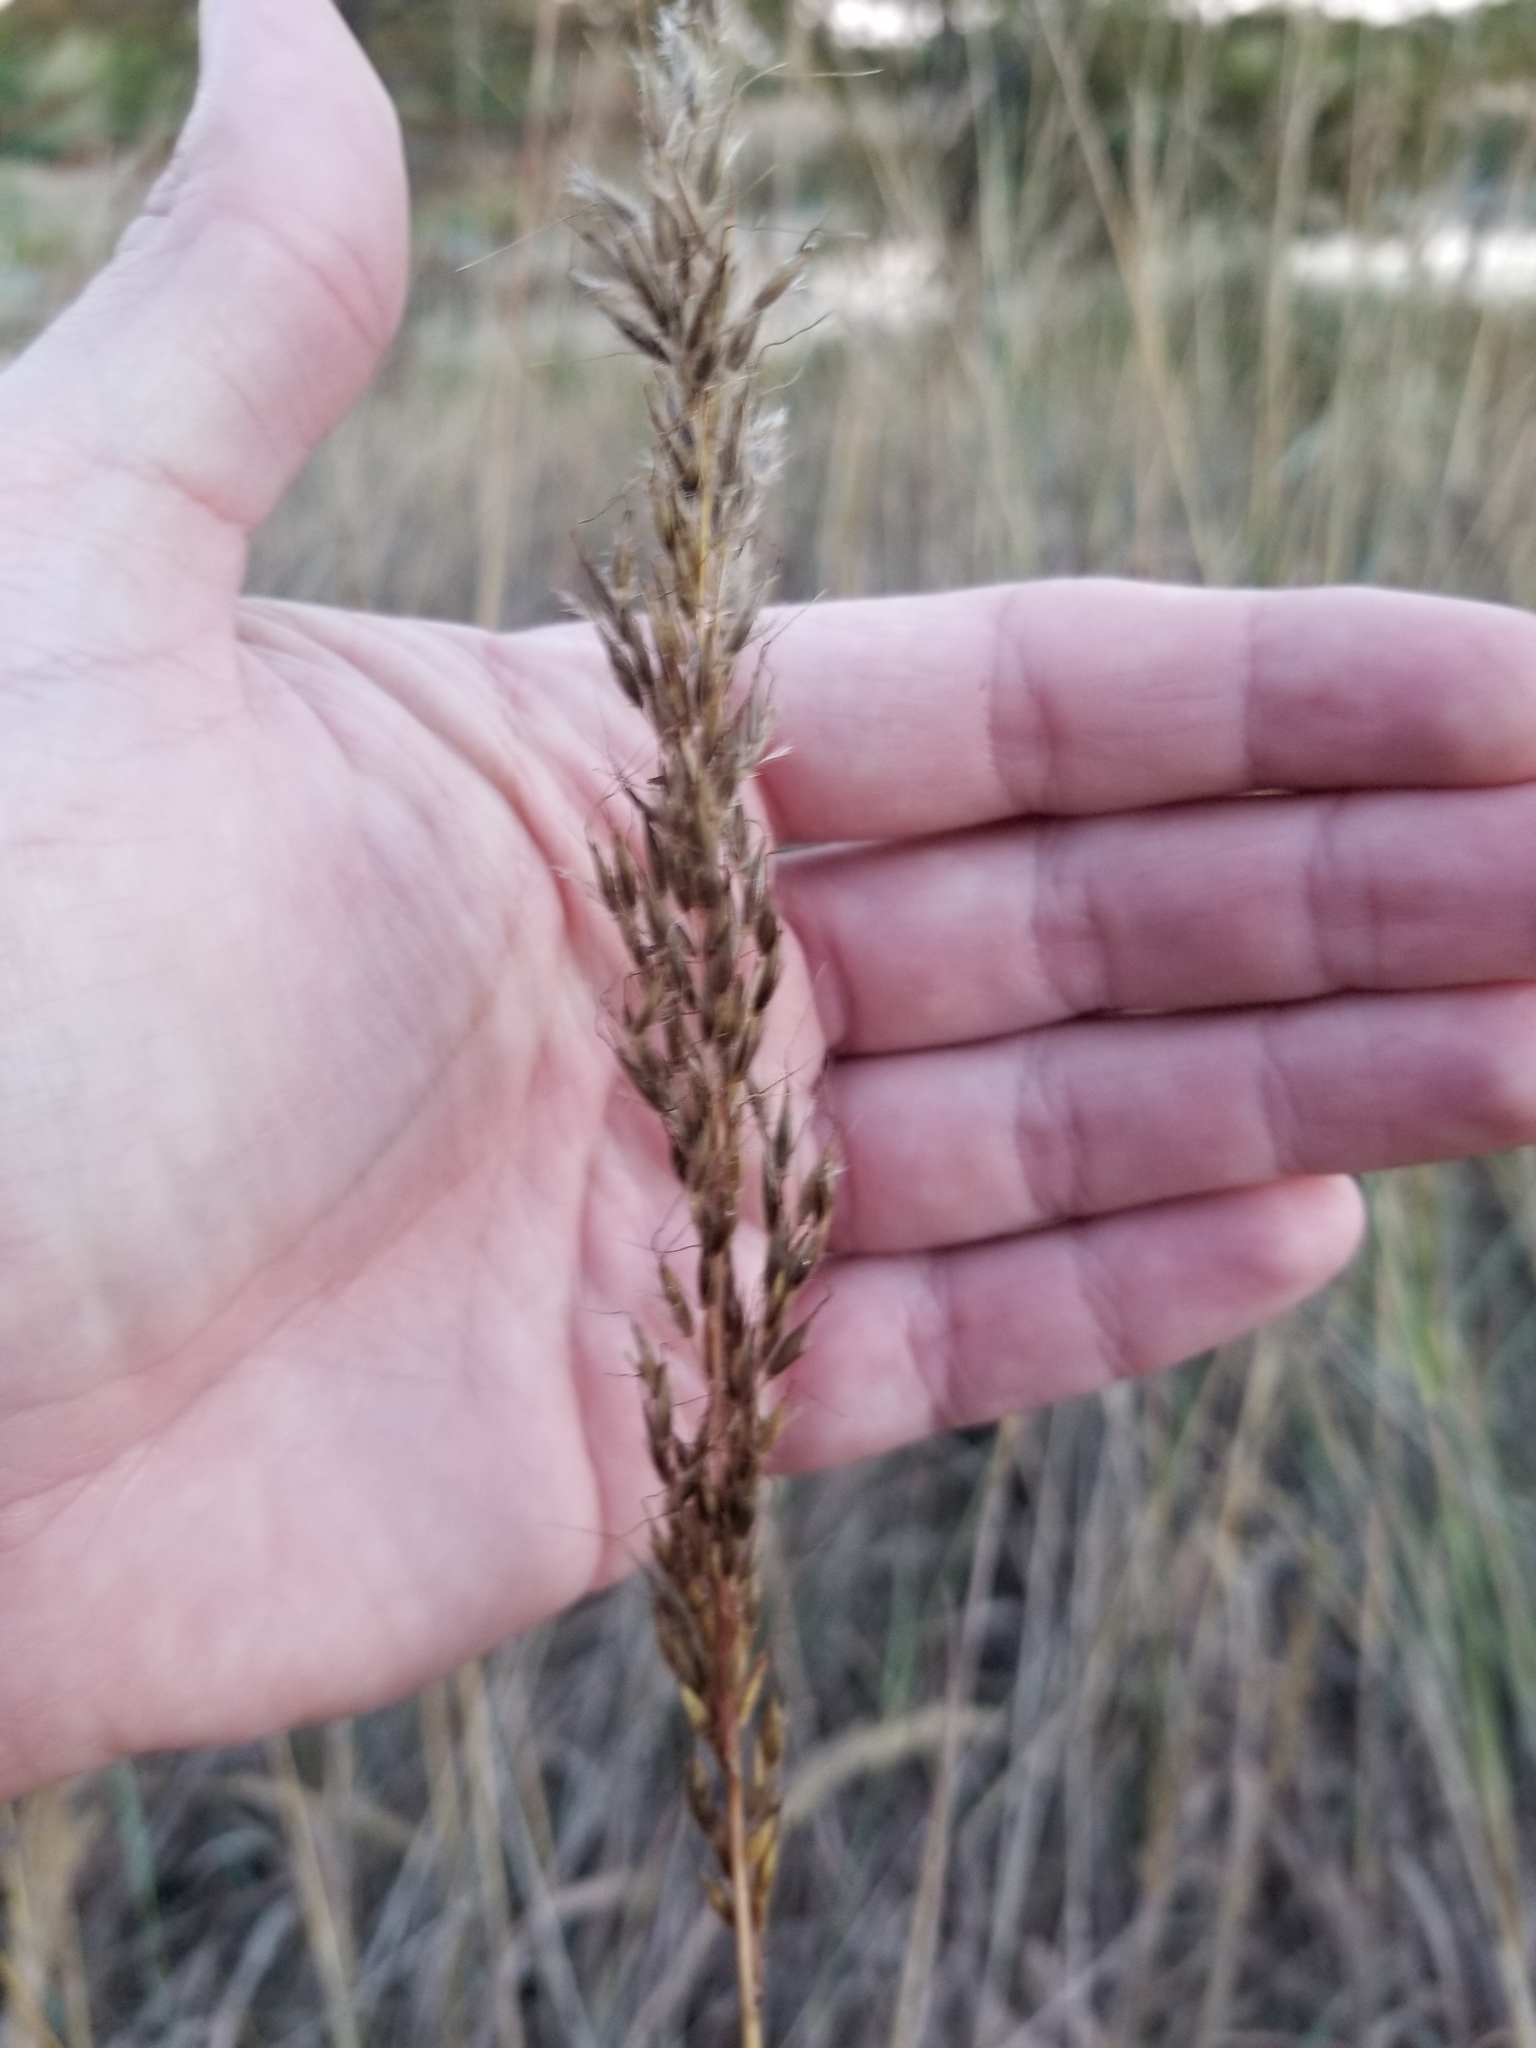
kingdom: Plantae
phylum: Tracheophyta
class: Liliopsida
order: Poales
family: Poaceae
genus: Sorghastrum
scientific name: Sorghastrum nutans
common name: Indian grass
